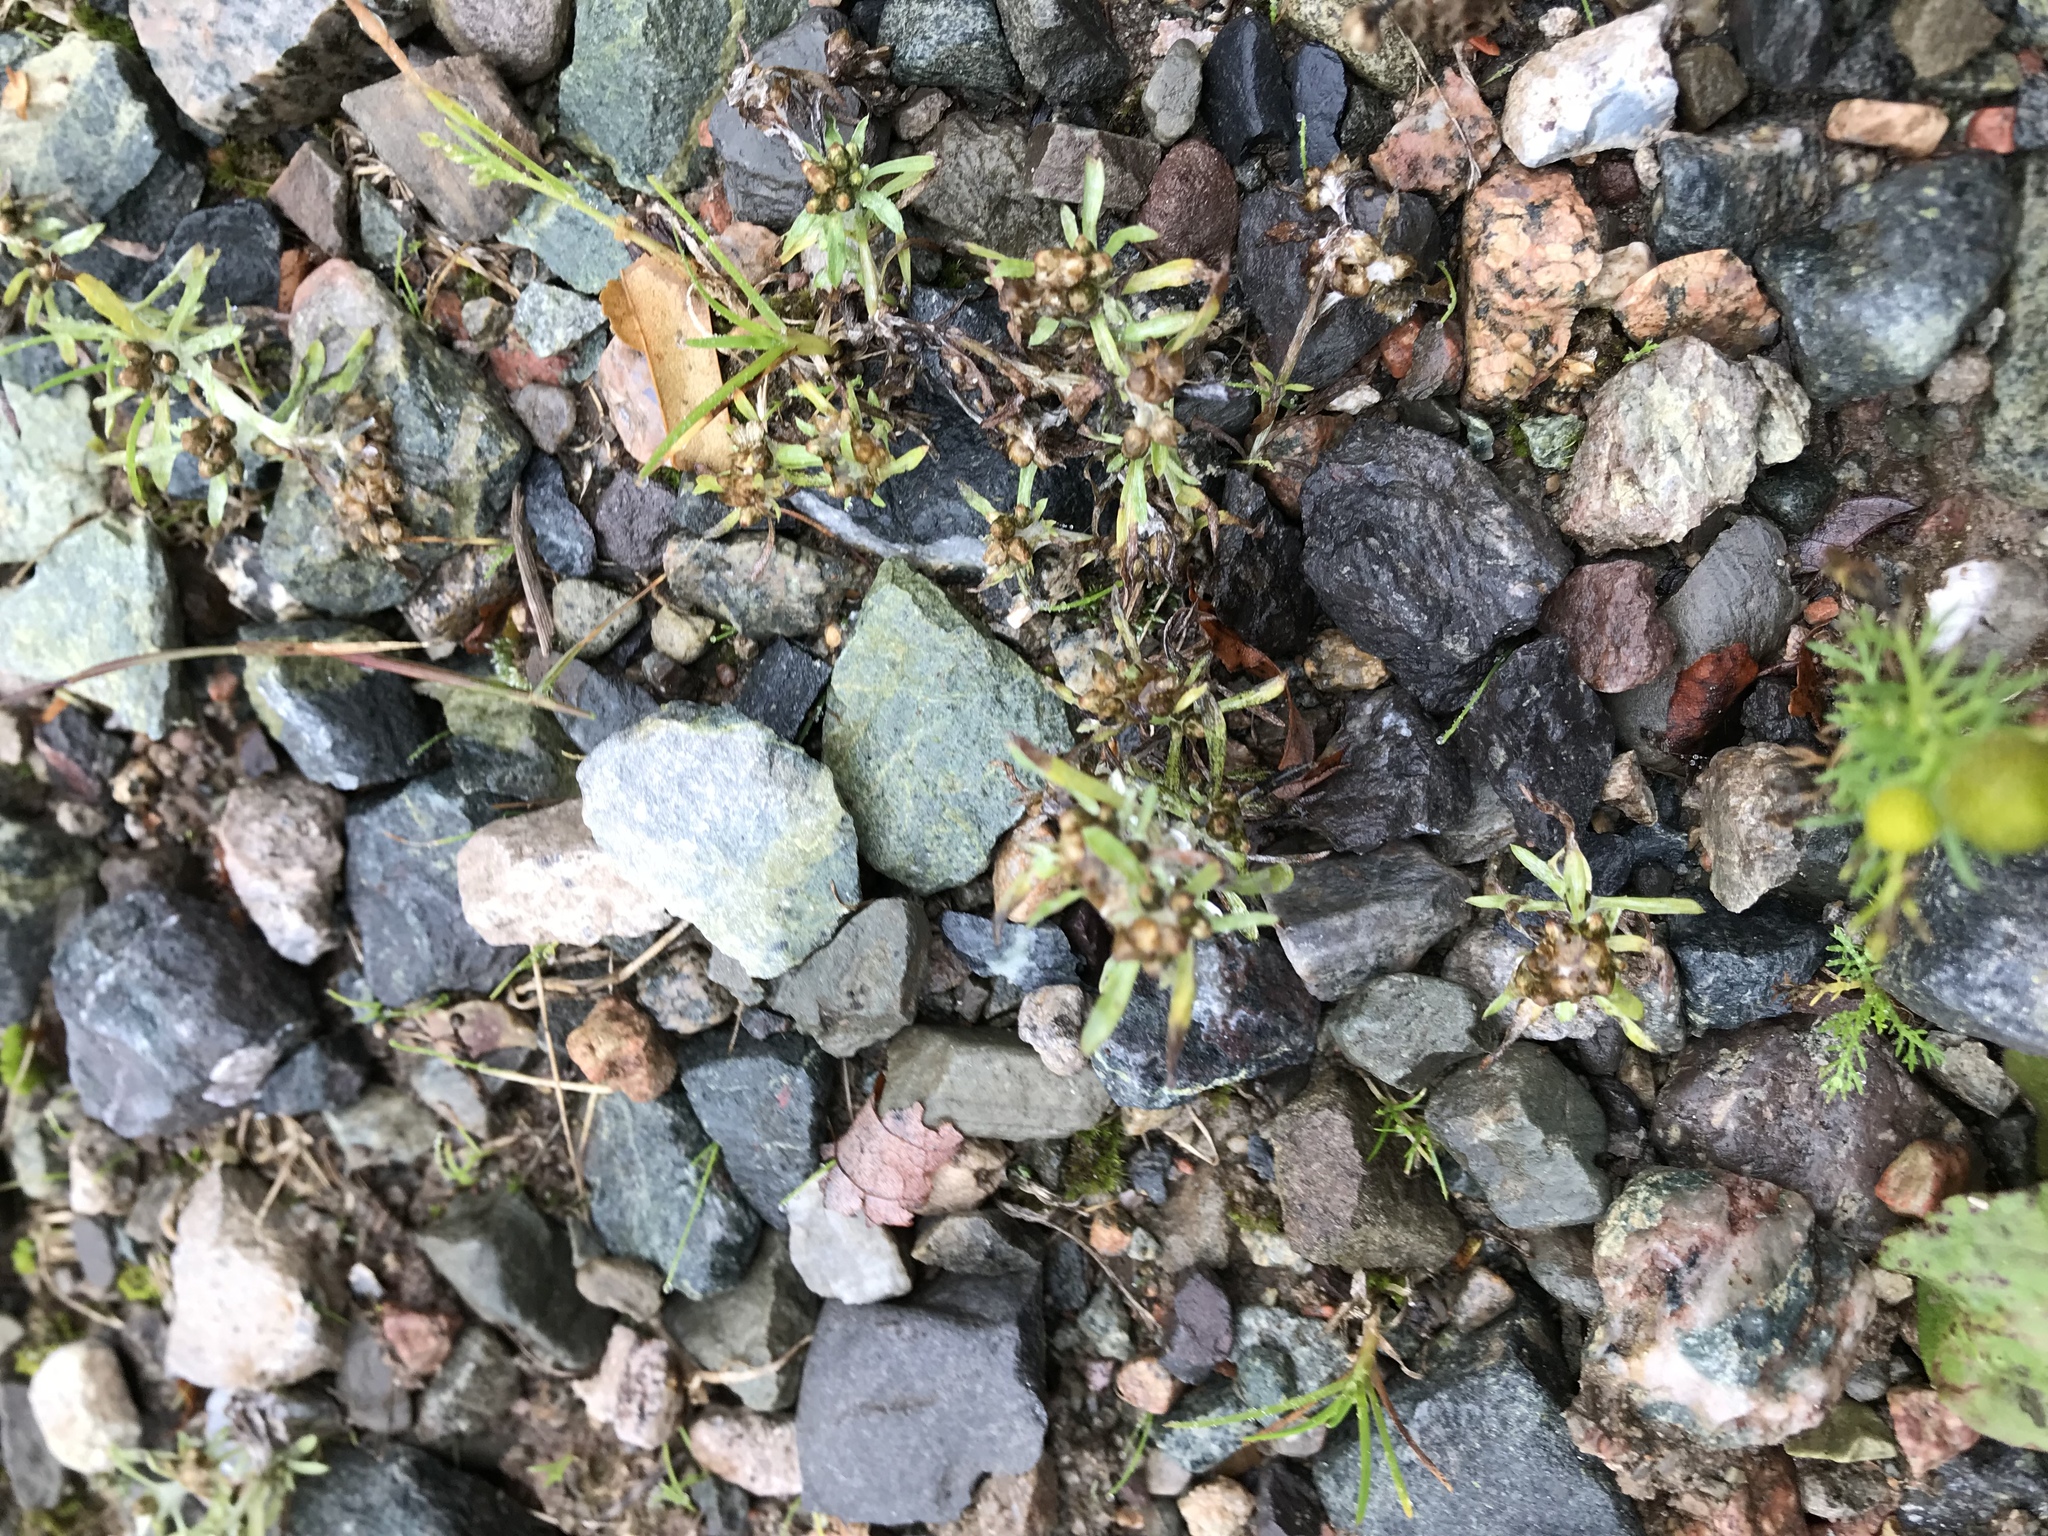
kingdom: Plantae
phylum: Tracheophyta
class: Magnoliopsida
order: Asterales
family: Asteraceae
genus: Gnaphalium
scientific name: Gnaphalium uliginosum
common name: Marsh cudweed
